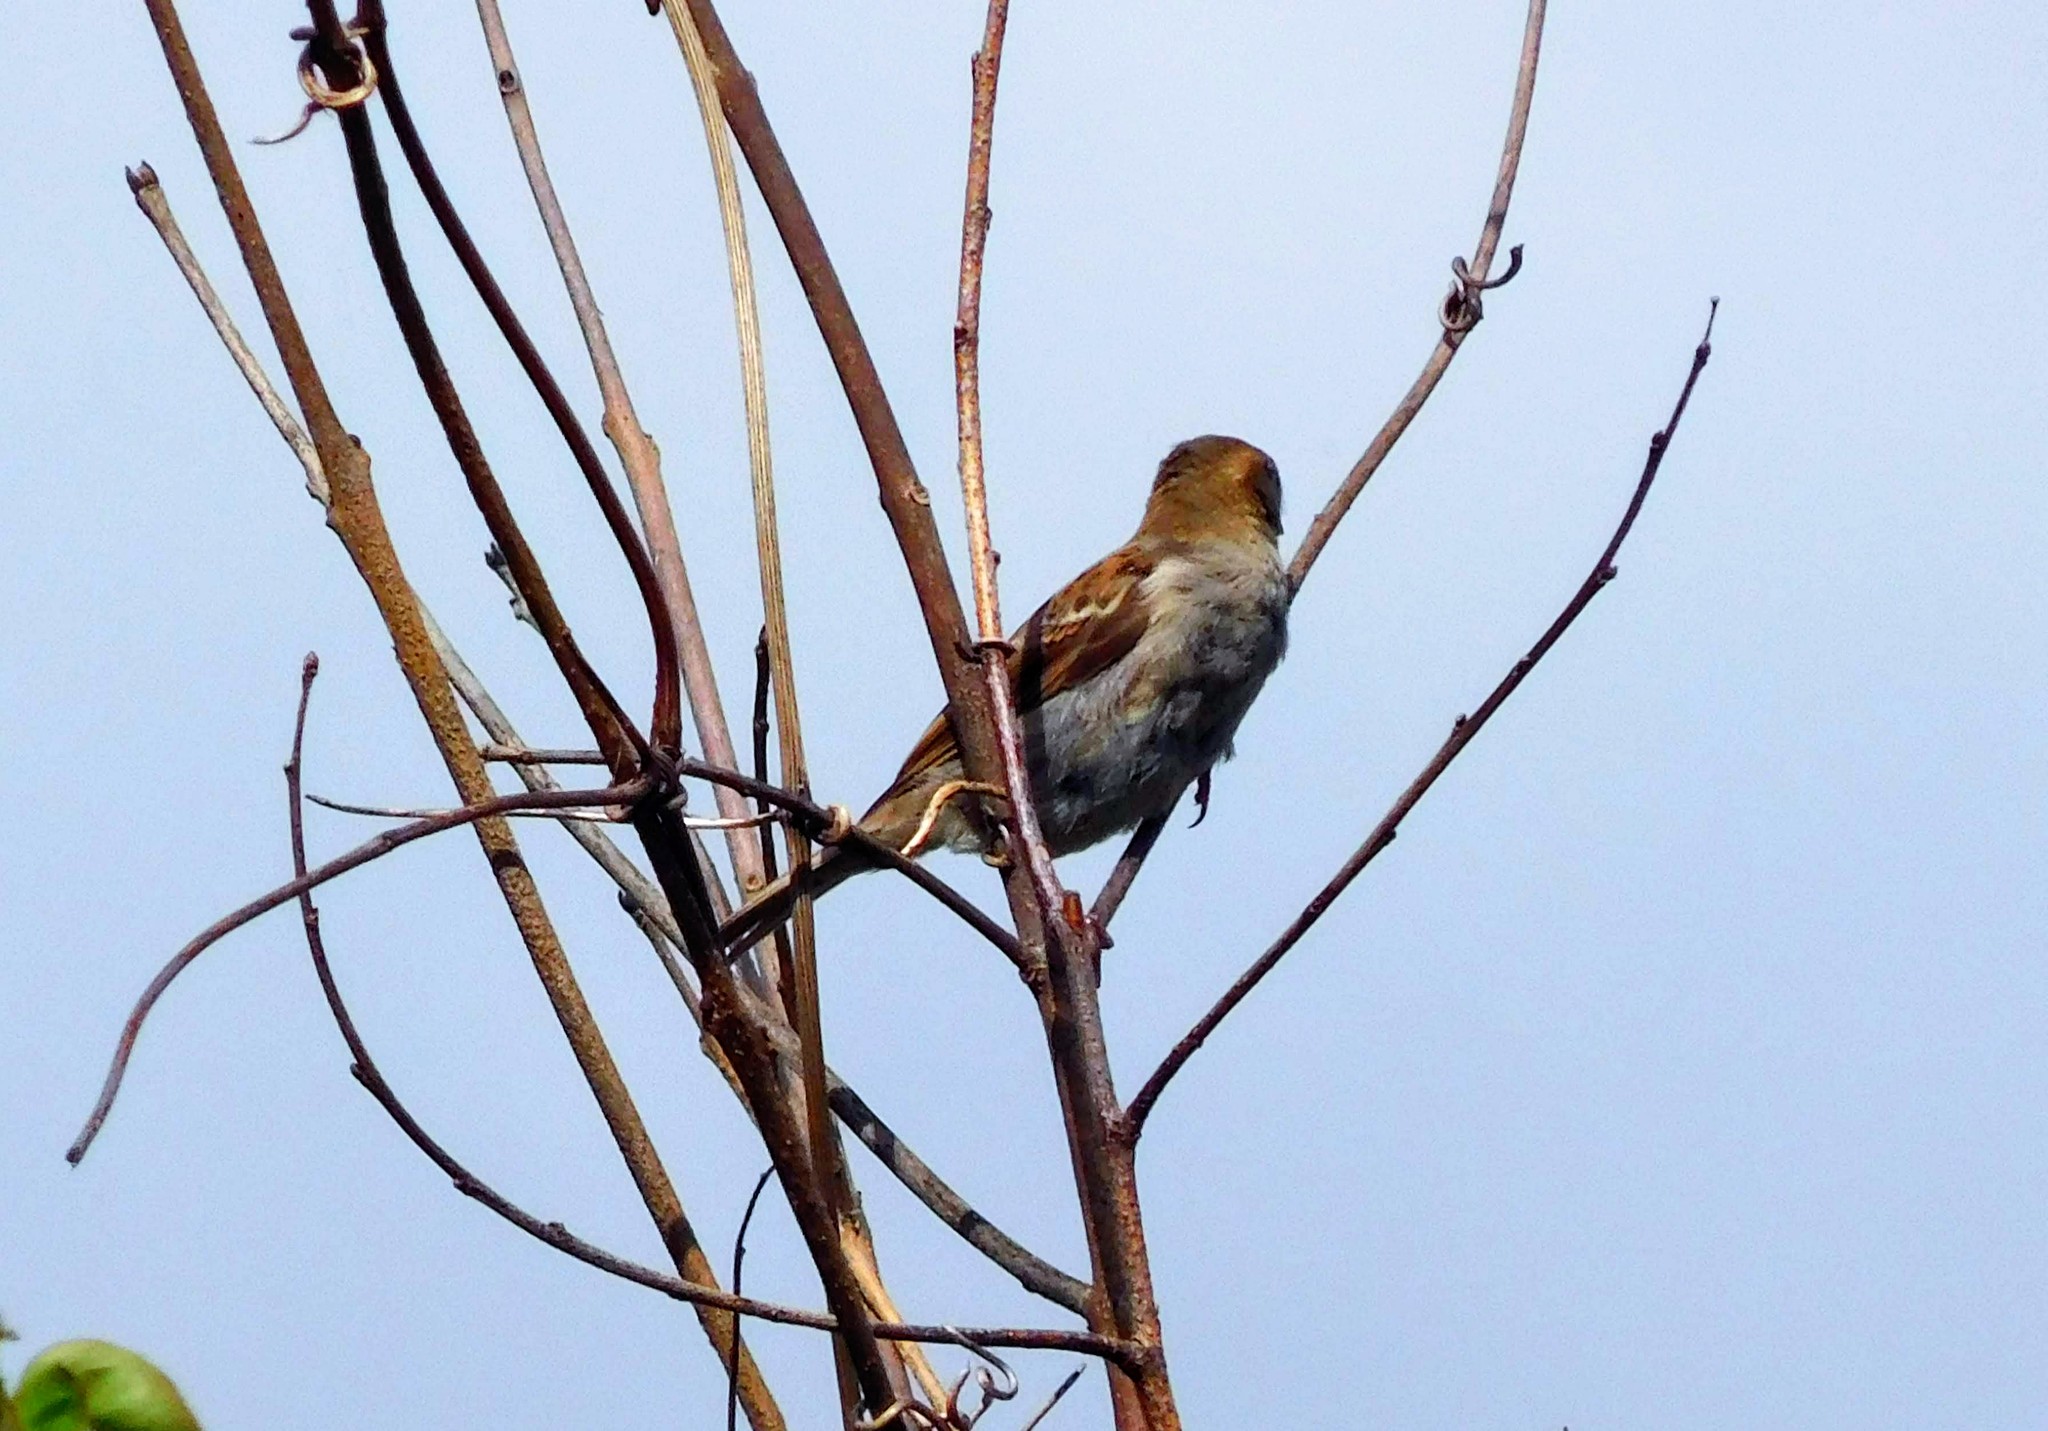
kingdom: Animalia
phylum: Chordata
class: Aves
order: Passeriformes
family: Passeridae
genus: Passer
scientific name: Passer domesticus
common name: House sparrow
